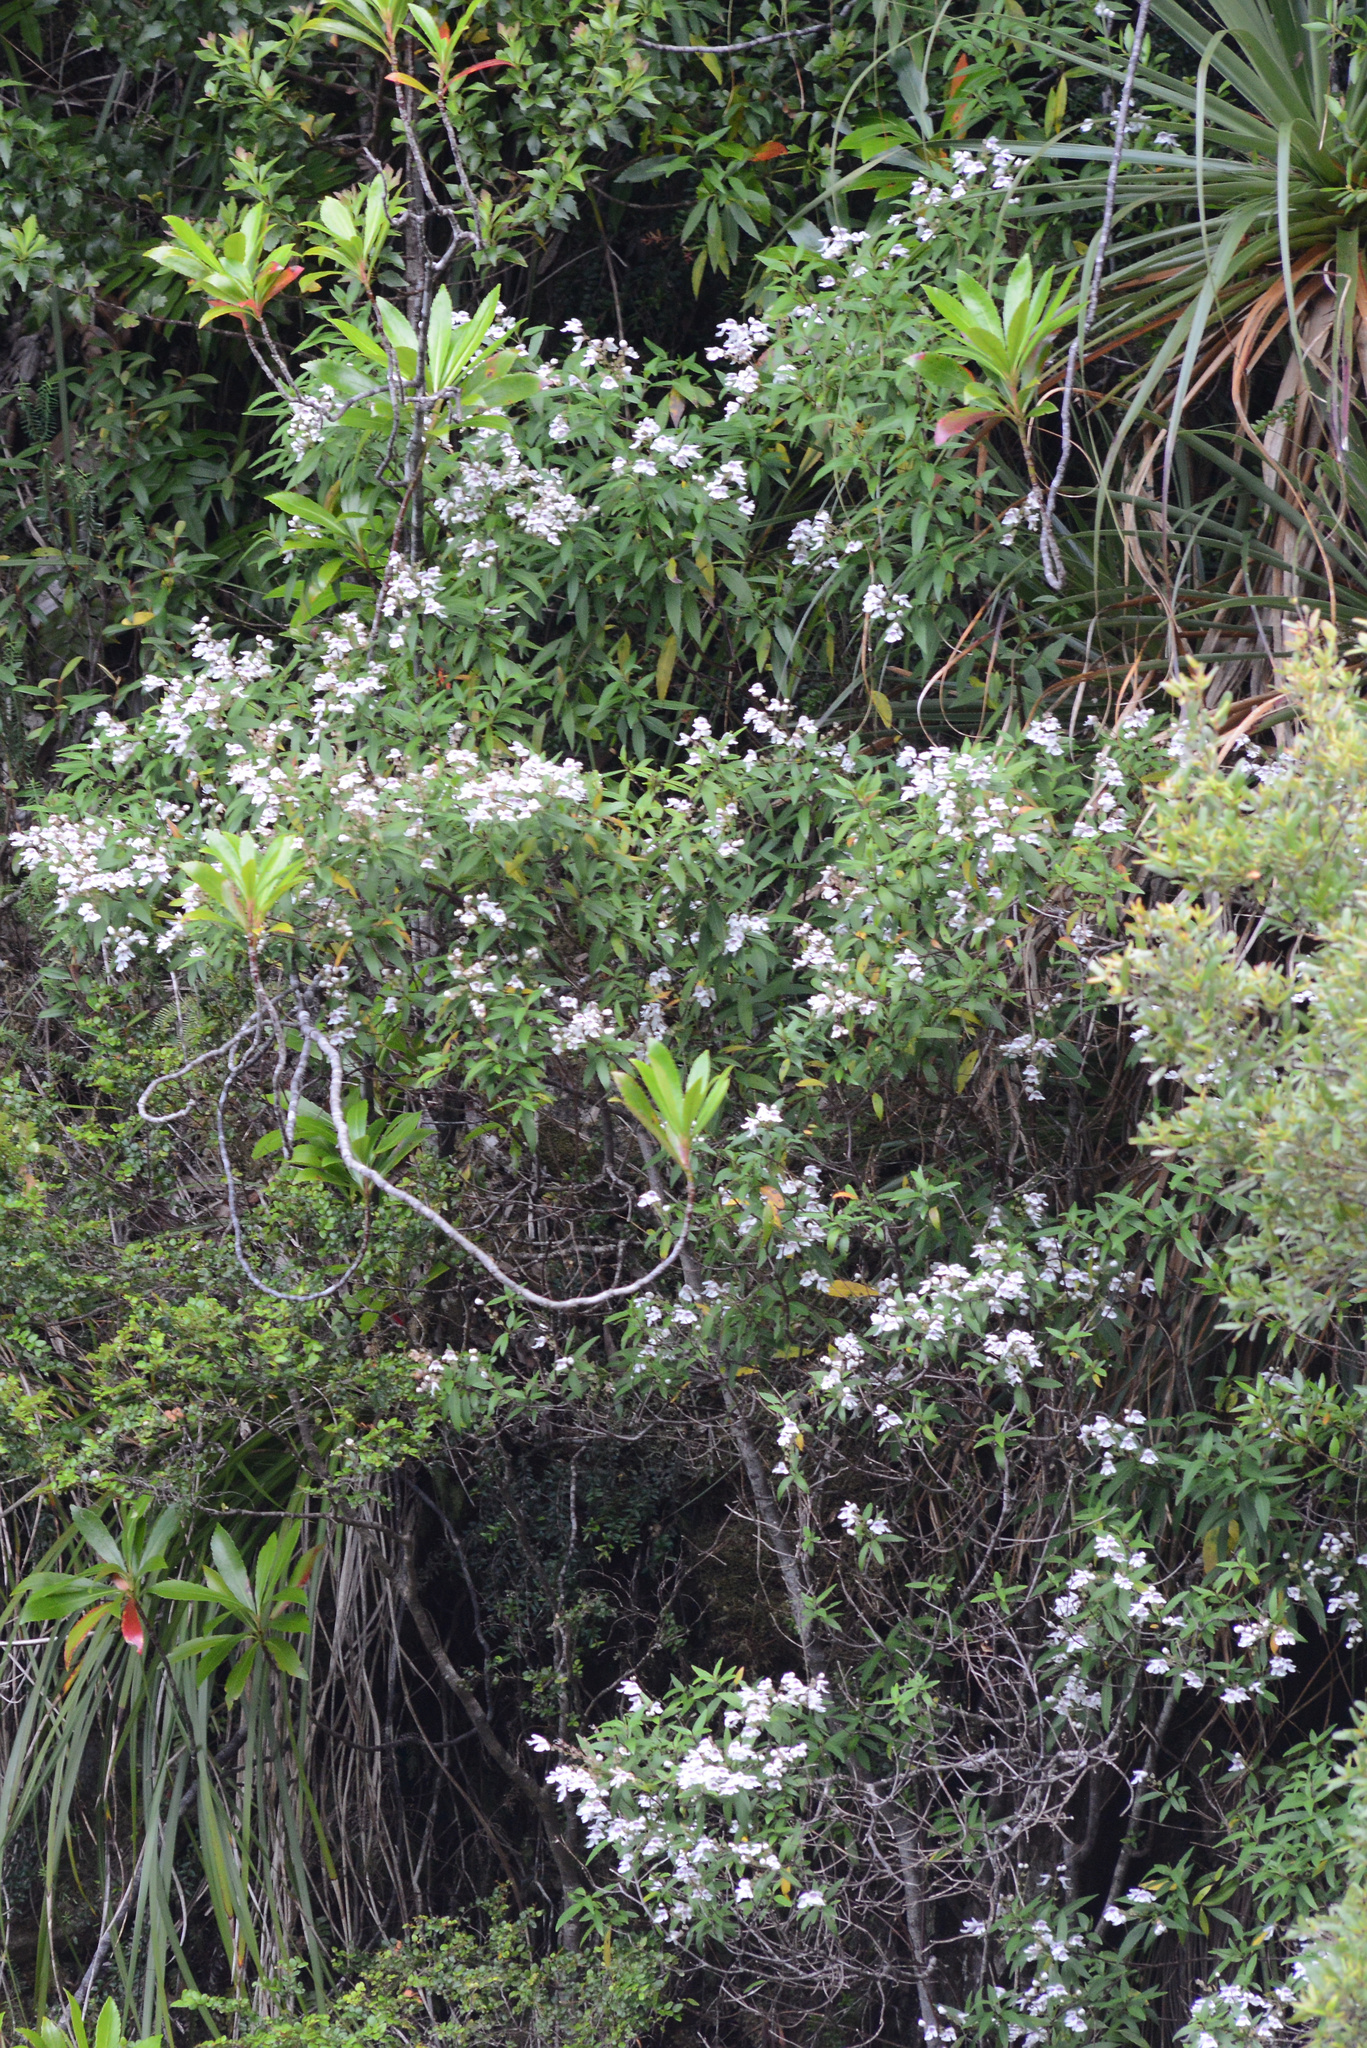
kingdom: Plantae
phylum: Tracheophyta
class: Magnoliopsida
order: Lamiales
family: Lamiaceae
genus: Prostanthera
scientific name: Prostanthera lasianthos
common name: Mountain-lilac
